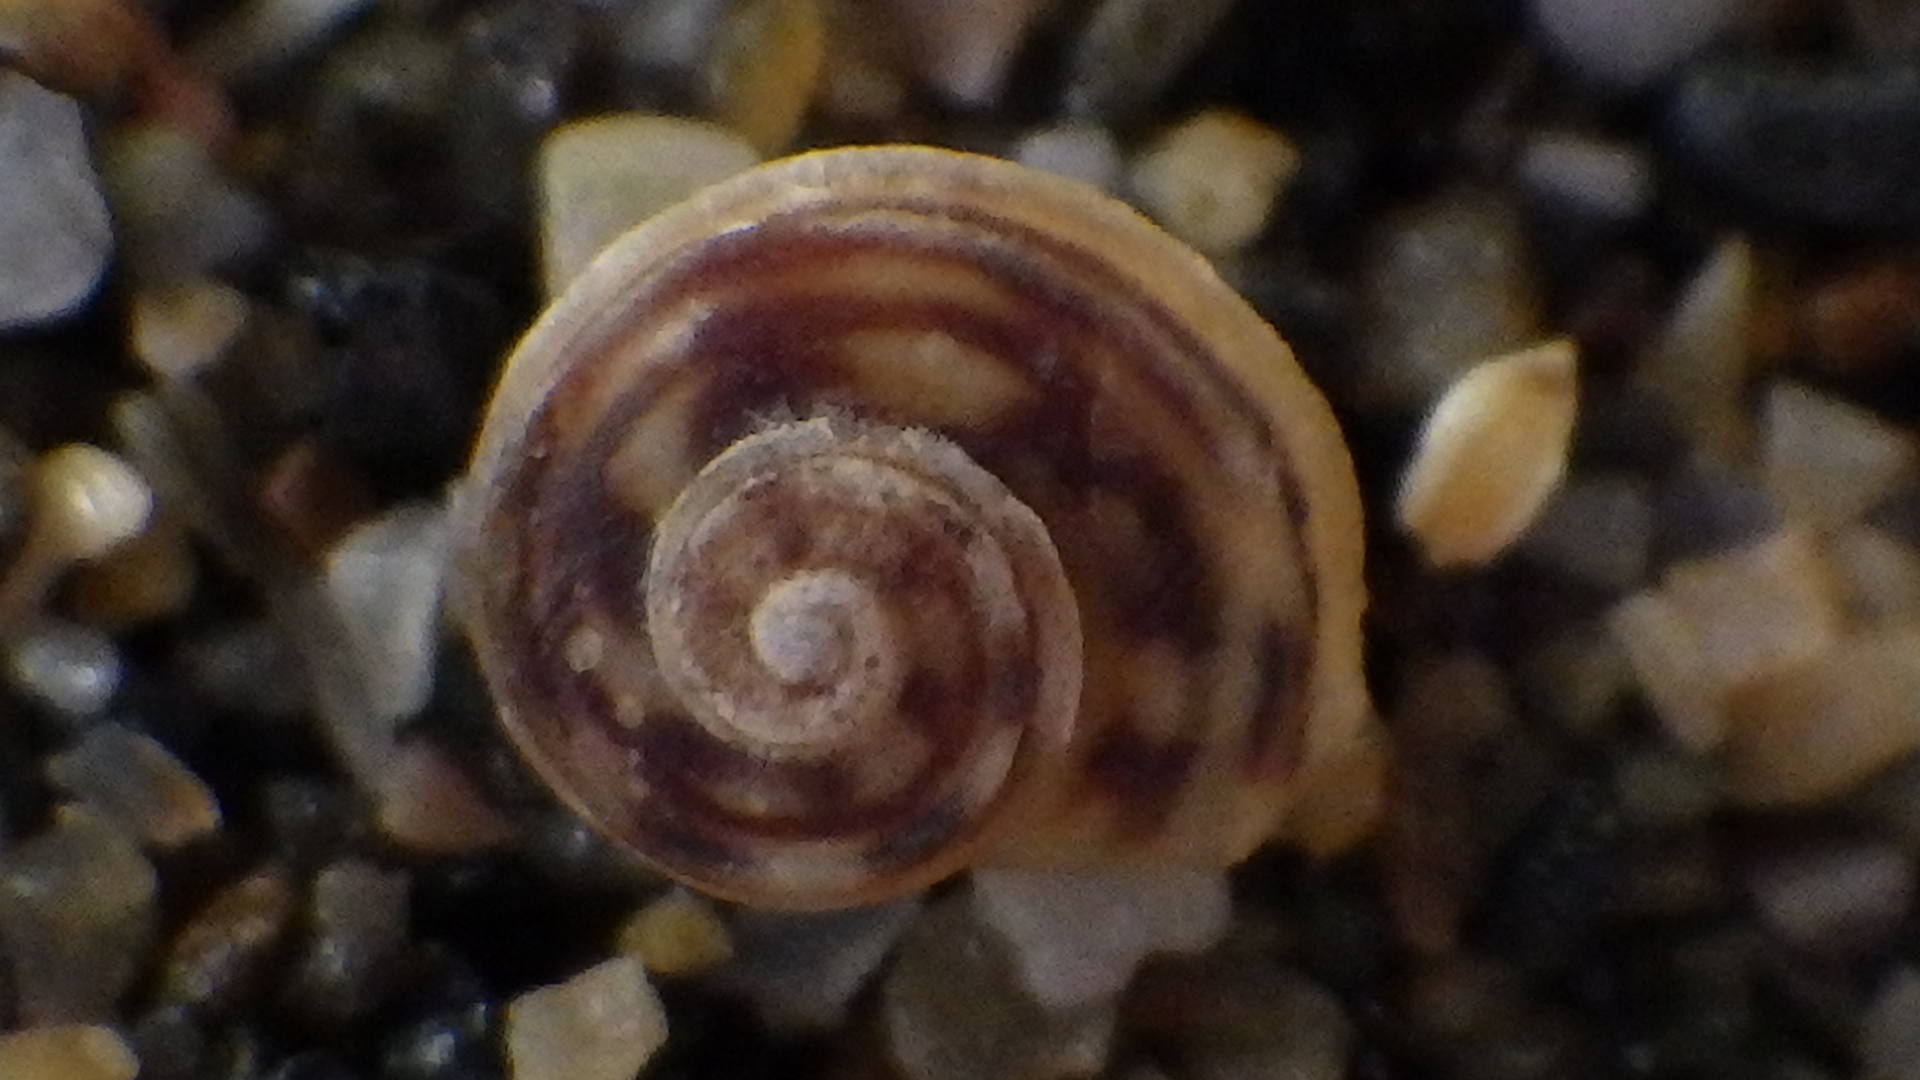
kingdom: Animalia
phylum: Mollusca
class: Gastropoda
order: Littorinimorpha
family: Littorinidae
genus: Risellopsis
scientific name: Risellopsis varia
